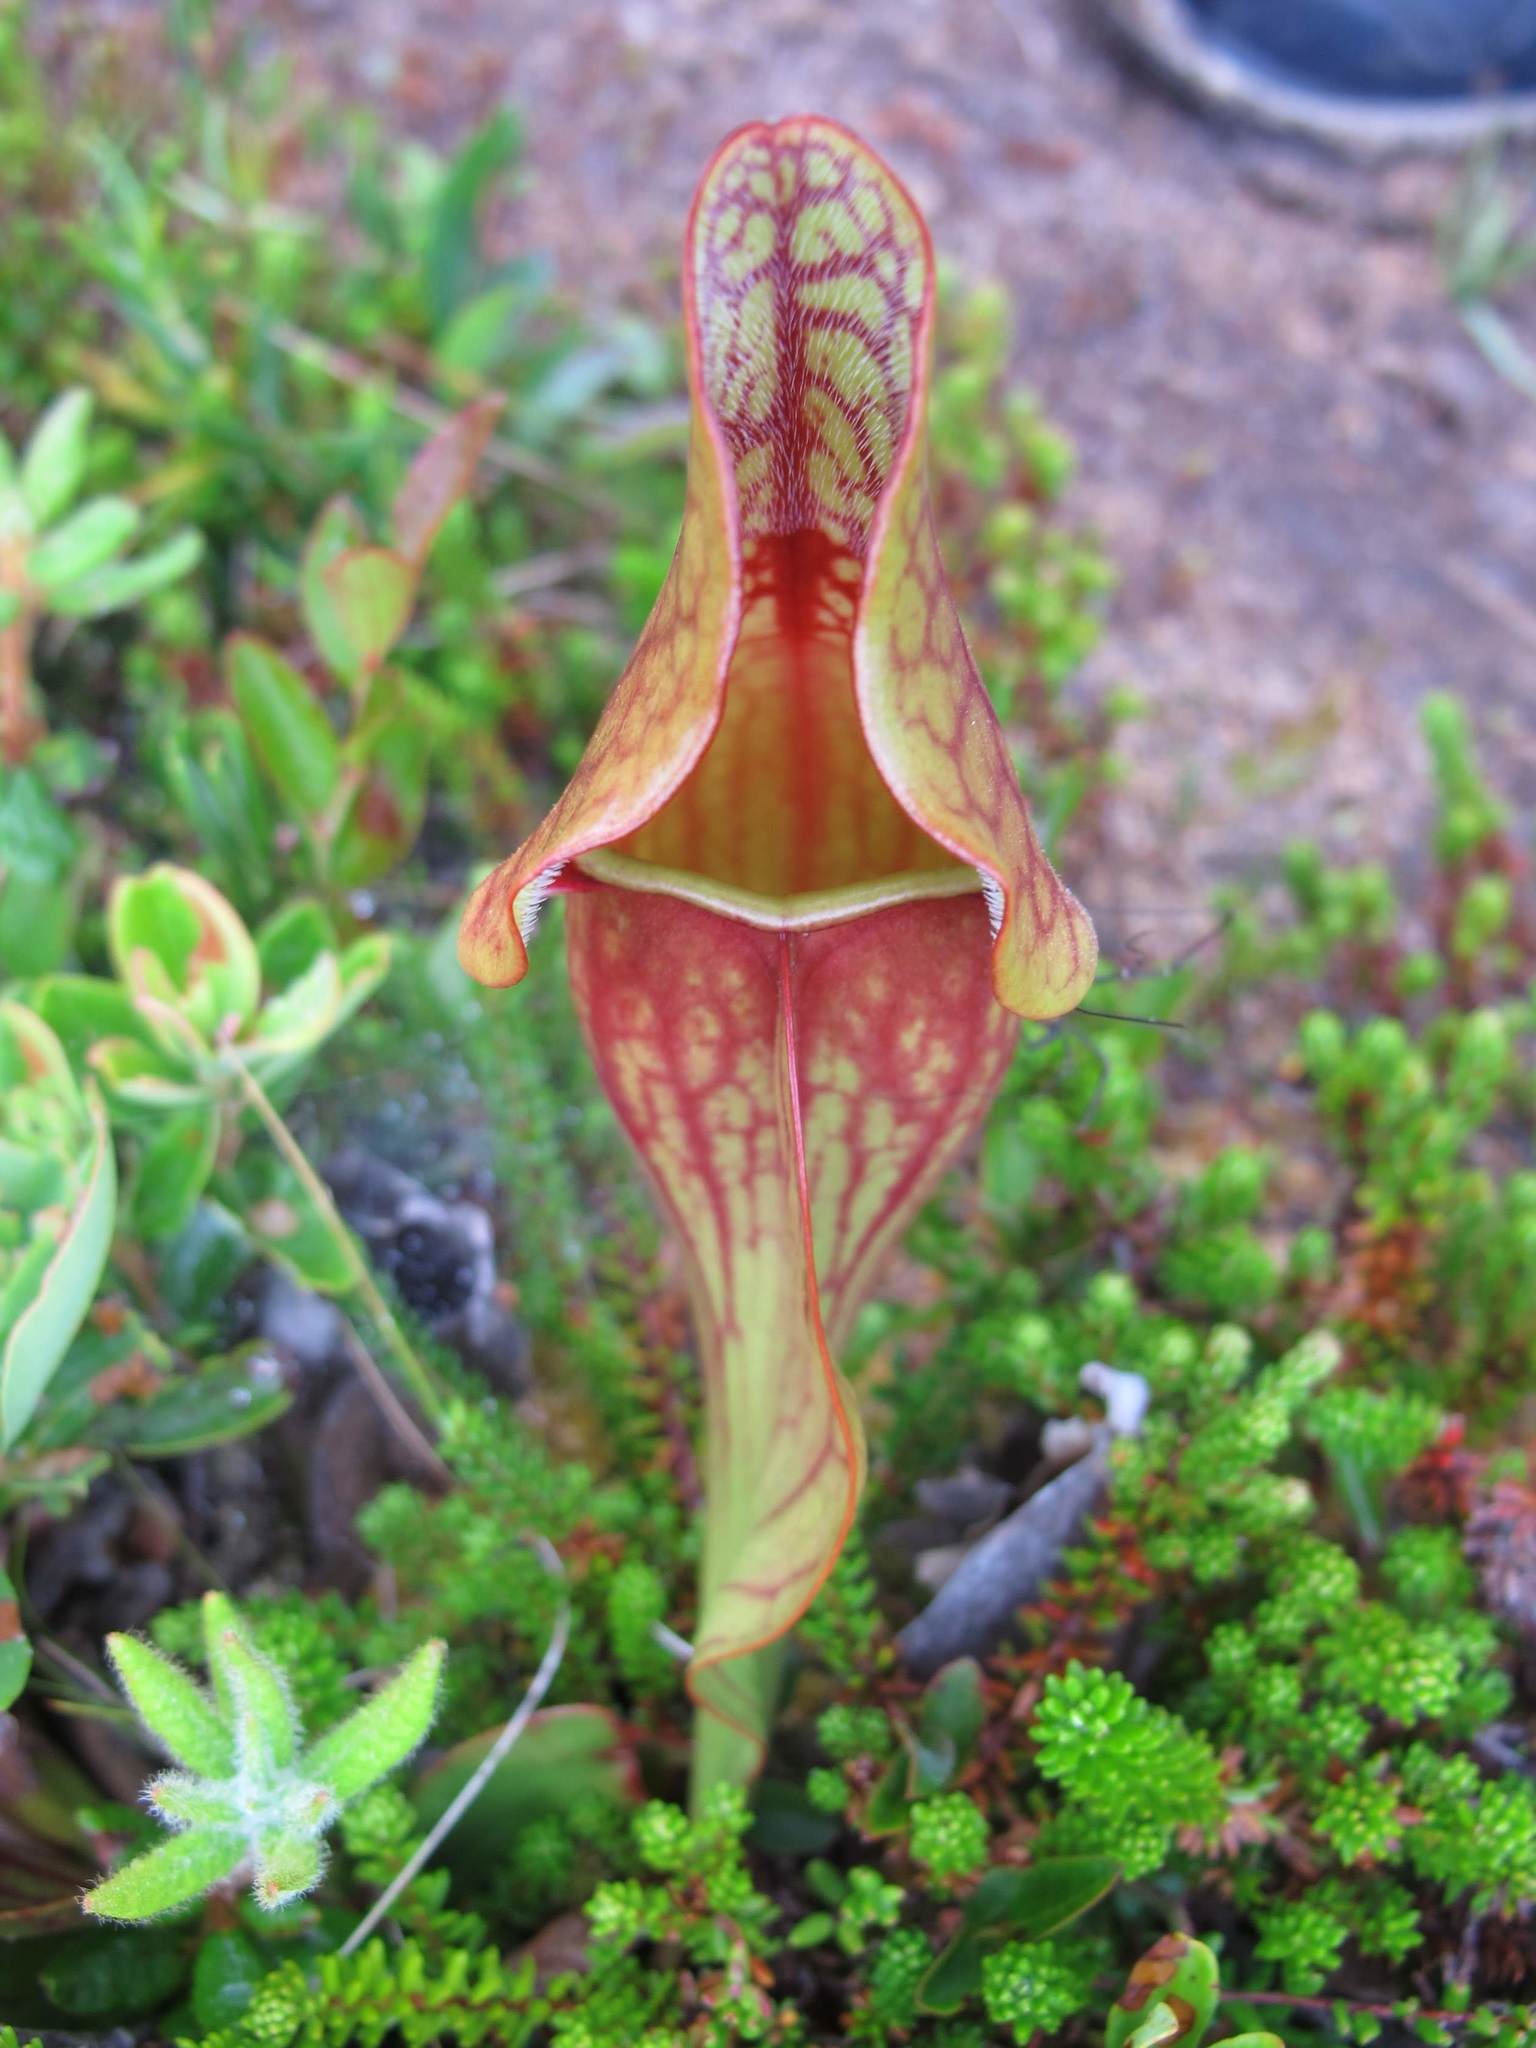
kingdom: Plantae
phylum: Tracheophyta
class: Magnoliopsida
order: Ericales
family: Sarraceniaceae
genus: Sarracenia
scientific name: Sarracenia purpurea
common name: Pitcherplant
